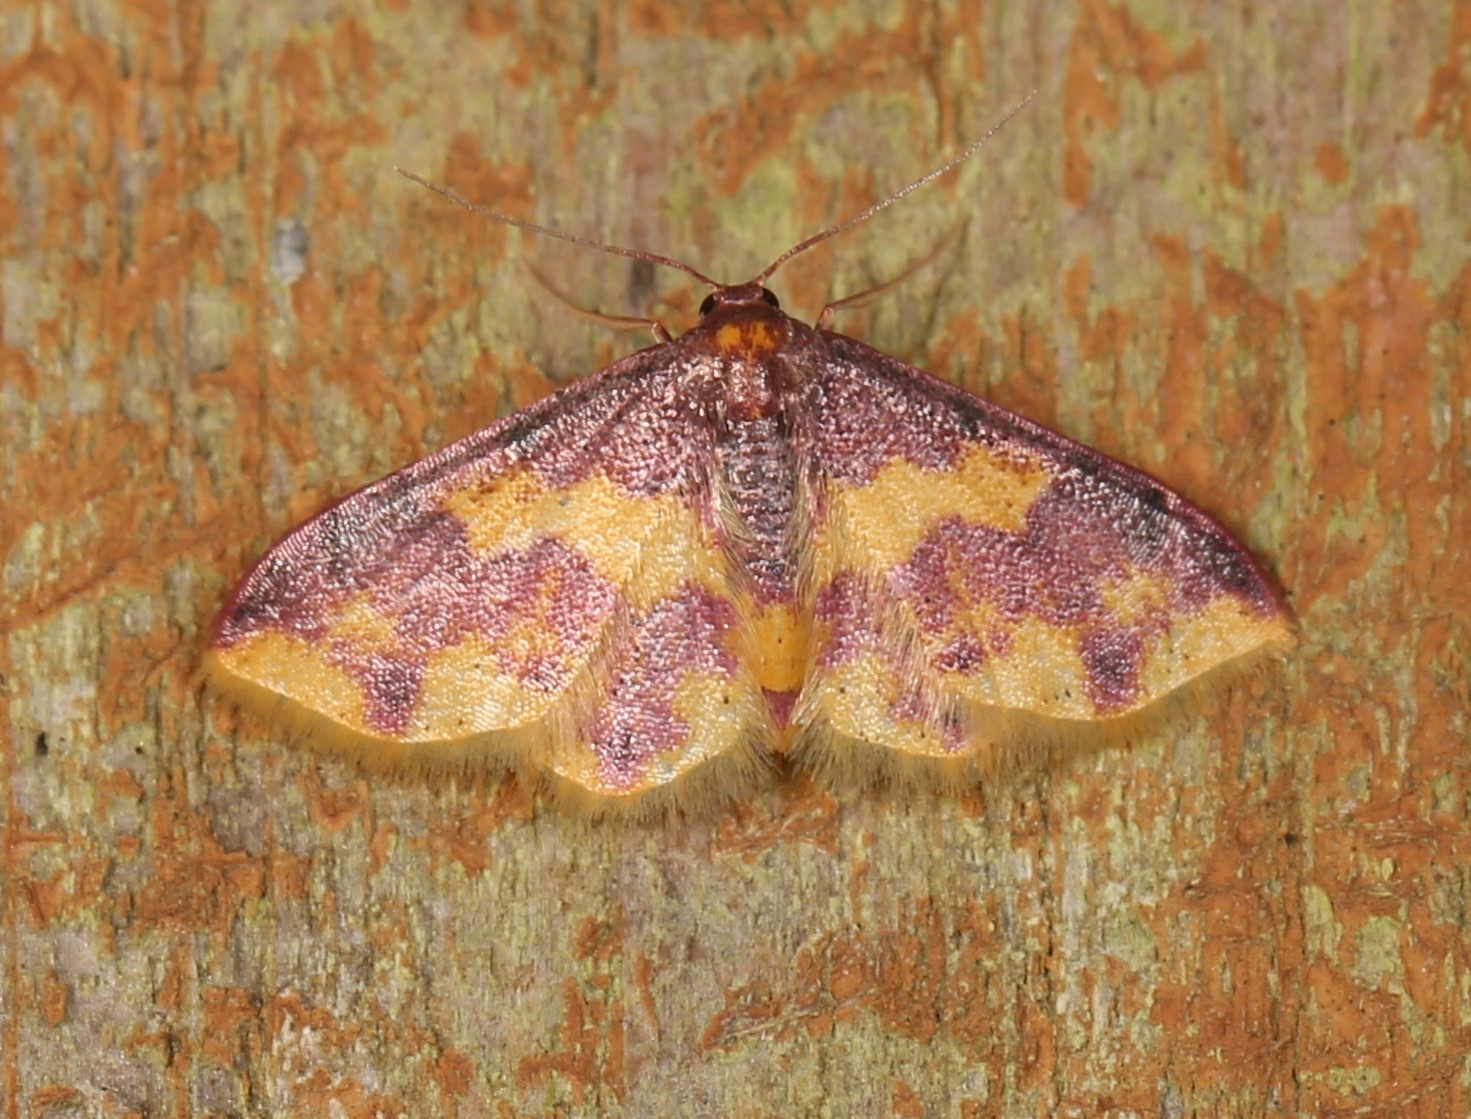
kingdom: Animalia
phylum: Arthropoda
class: Insecta
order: Lepidoptera
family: Geometridae
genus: Lophosis
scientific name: Lophosis labeculata
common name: Stained lophosis moth
